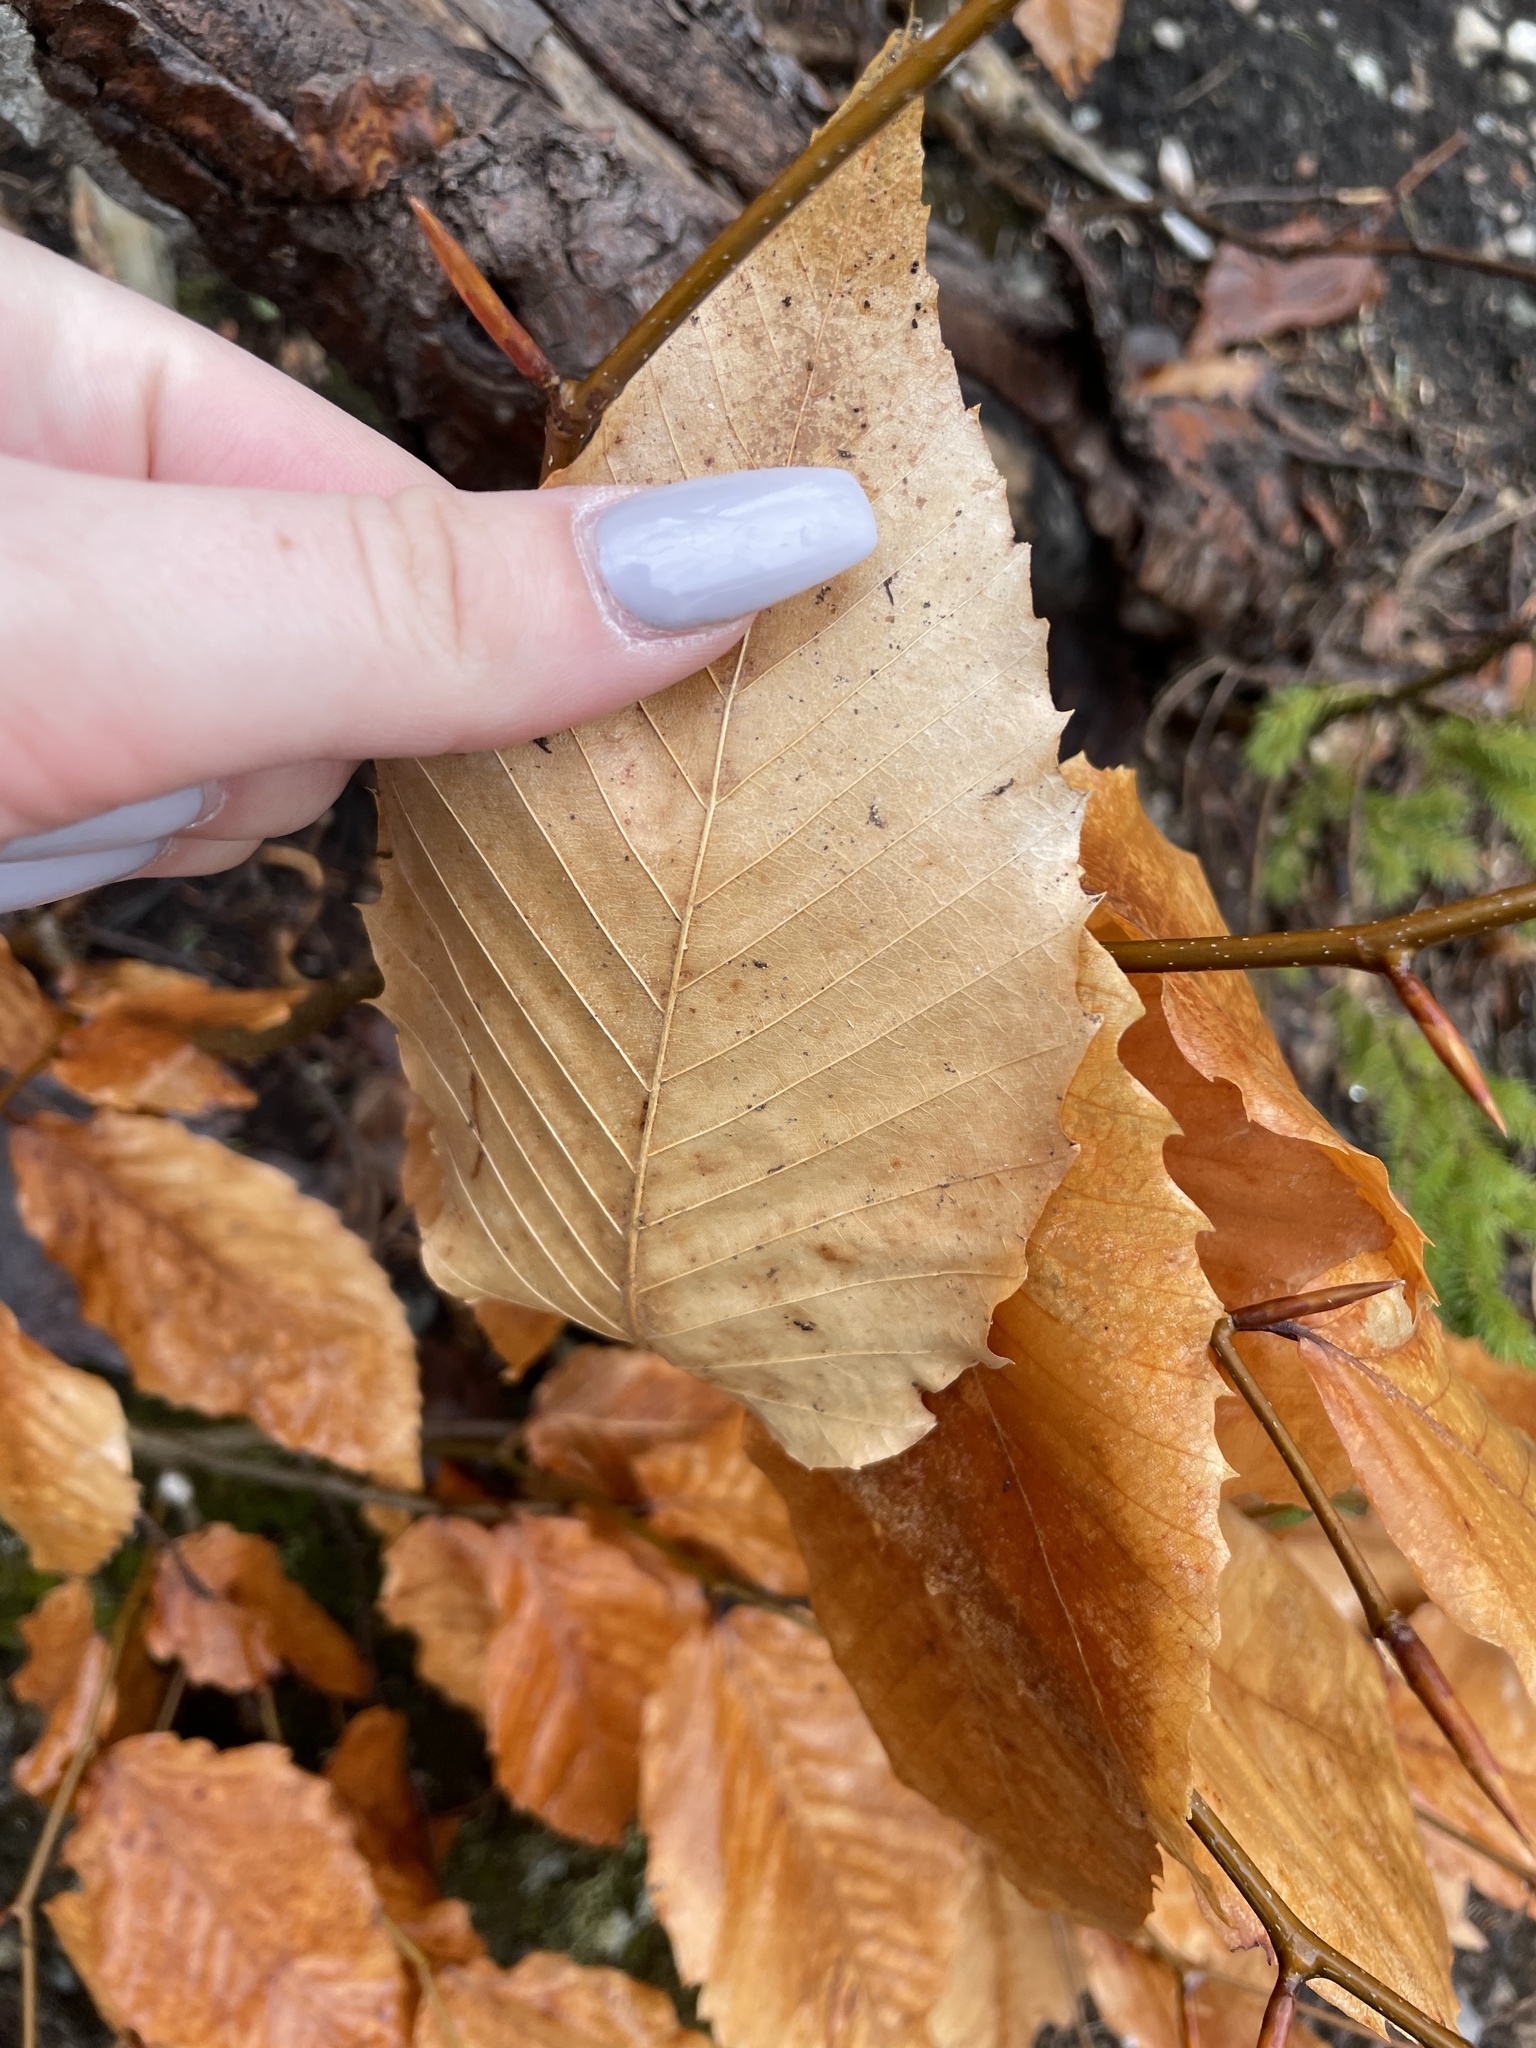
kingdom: Plantae
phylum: Tracheophyta
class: Magnoliopsida
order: Fagales
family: Fagaceae
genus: Fagus
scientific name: Fagus grandifolia
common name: American beech
